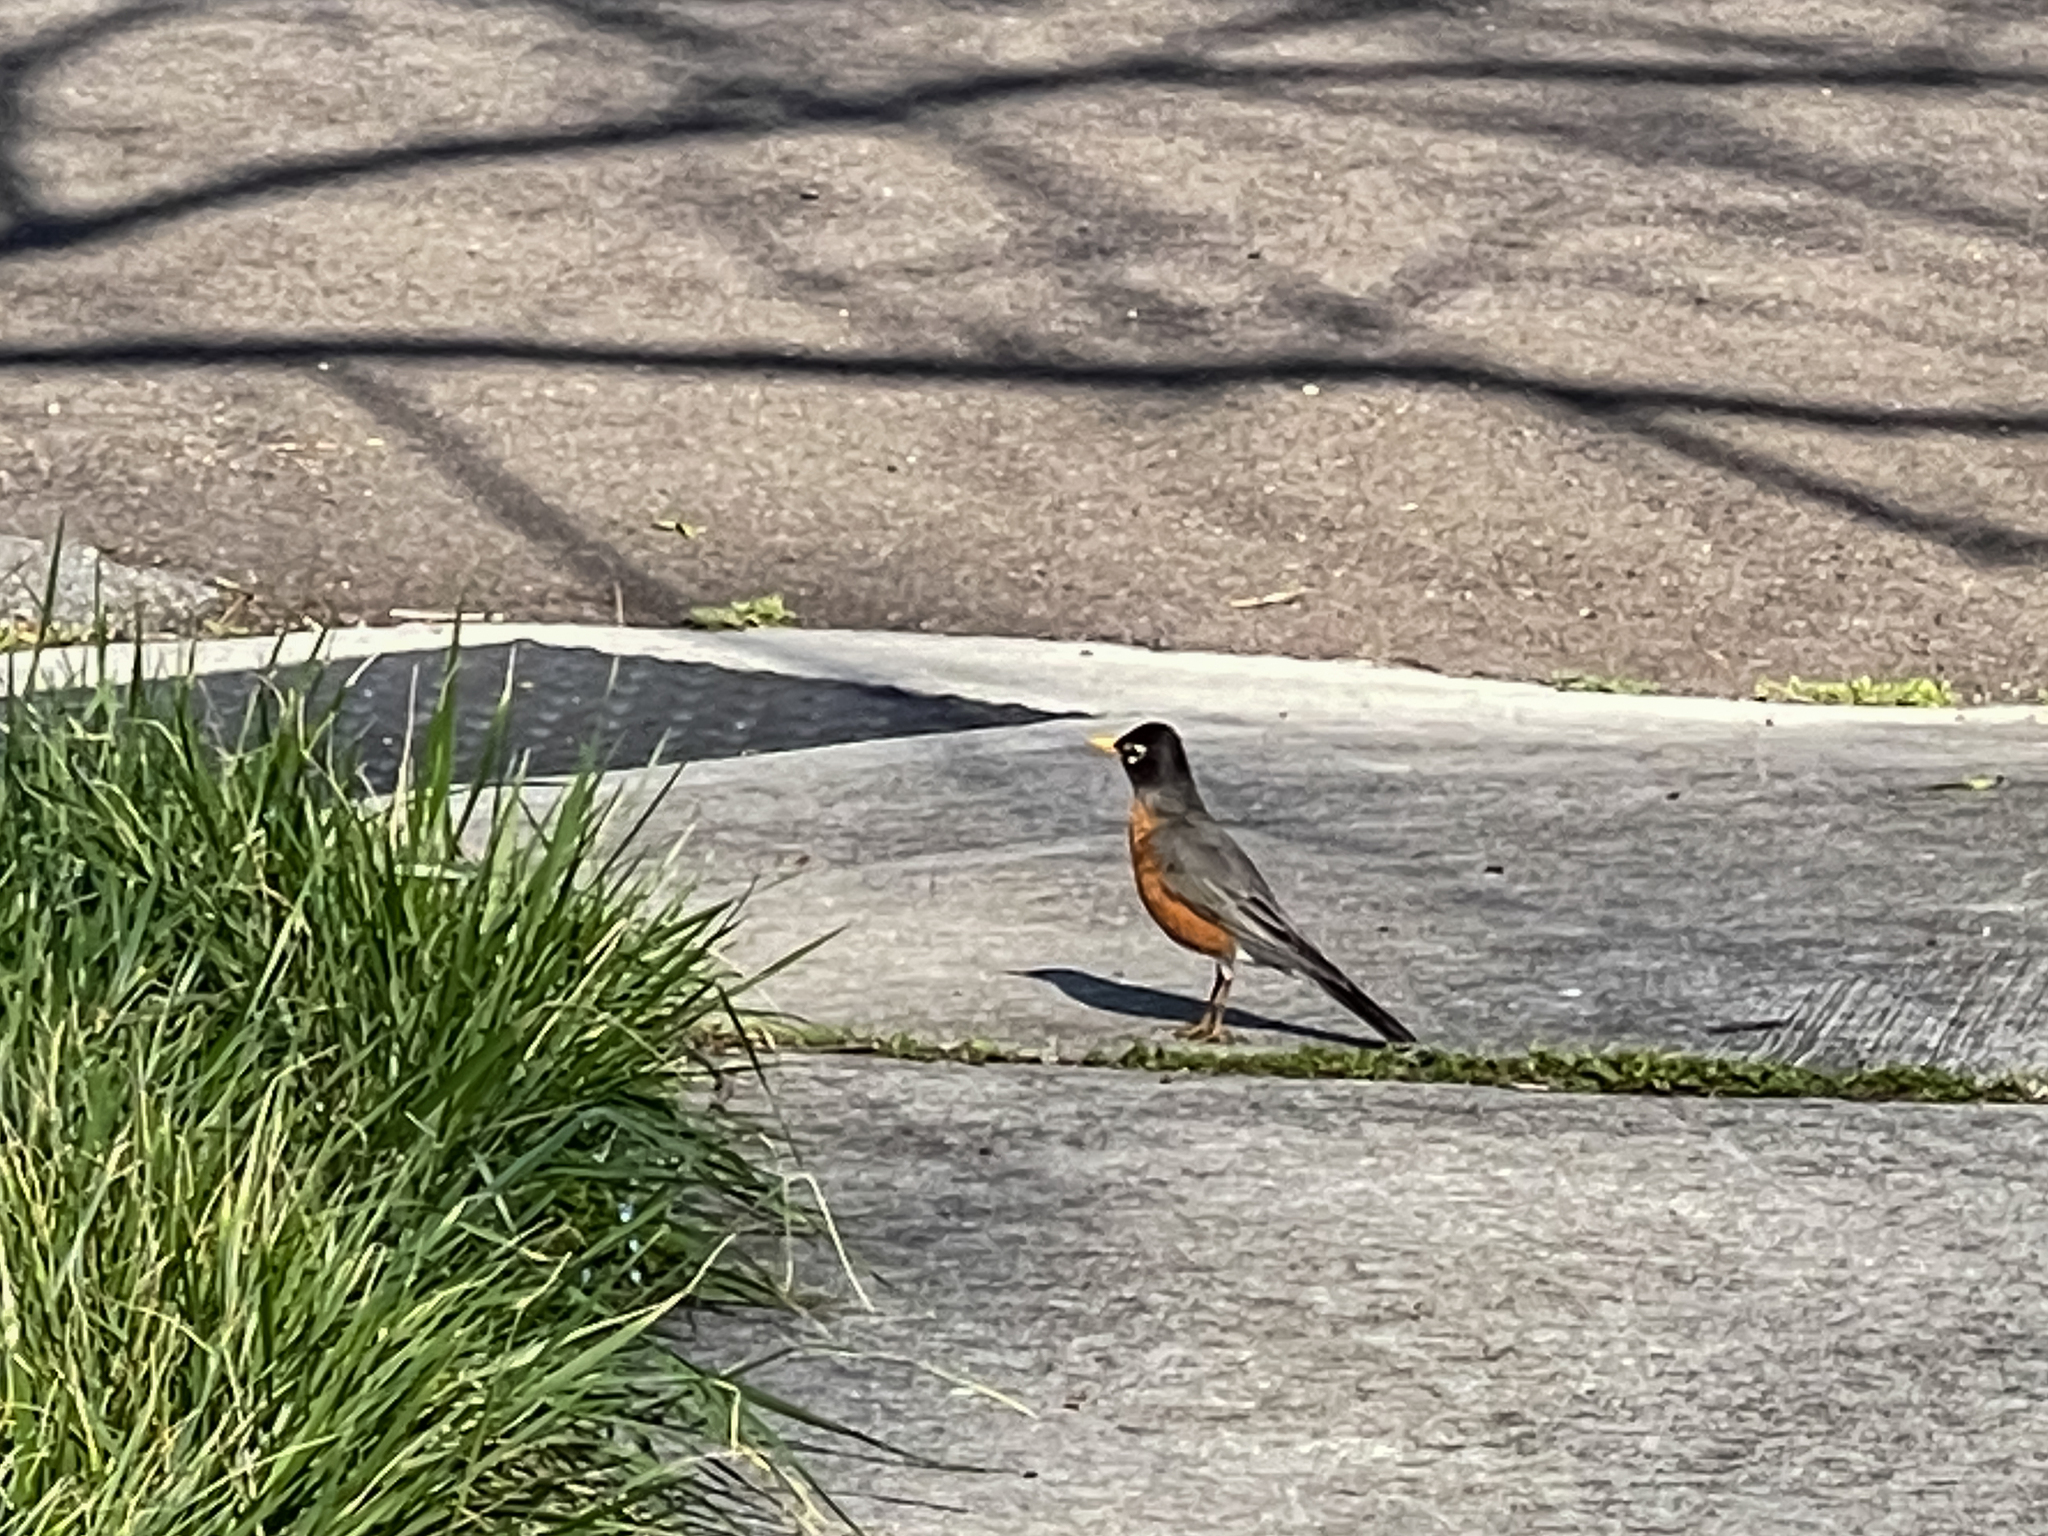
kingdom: Animalia
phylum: Chordata
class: Aves
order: Passeriformes
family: Turdidae
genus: Turdus
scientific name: Turdus migratorius
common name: American robin
